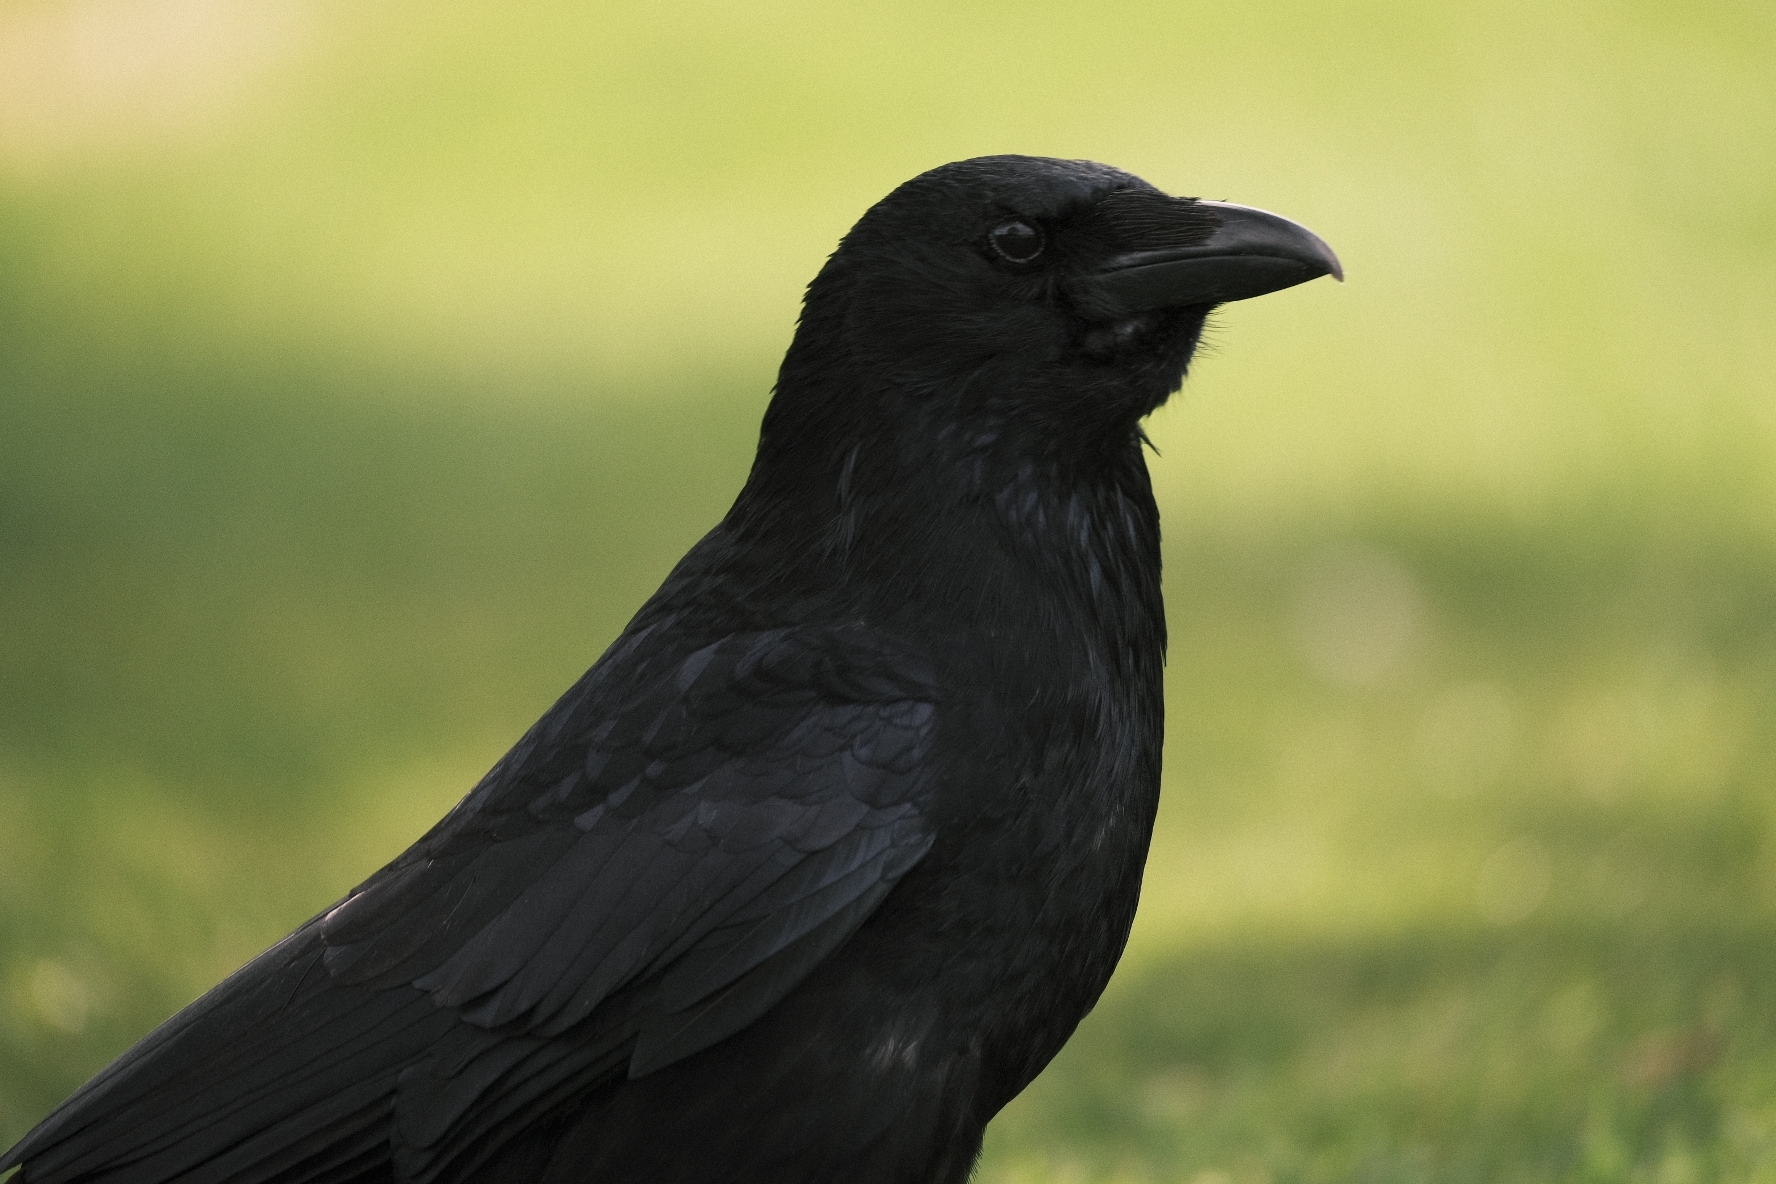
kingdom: Animalia
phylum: Chordata
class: Aves
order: Passeriformes
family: Corvidae
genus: Corvus
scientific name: Corvus corone
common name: Carrion crow
